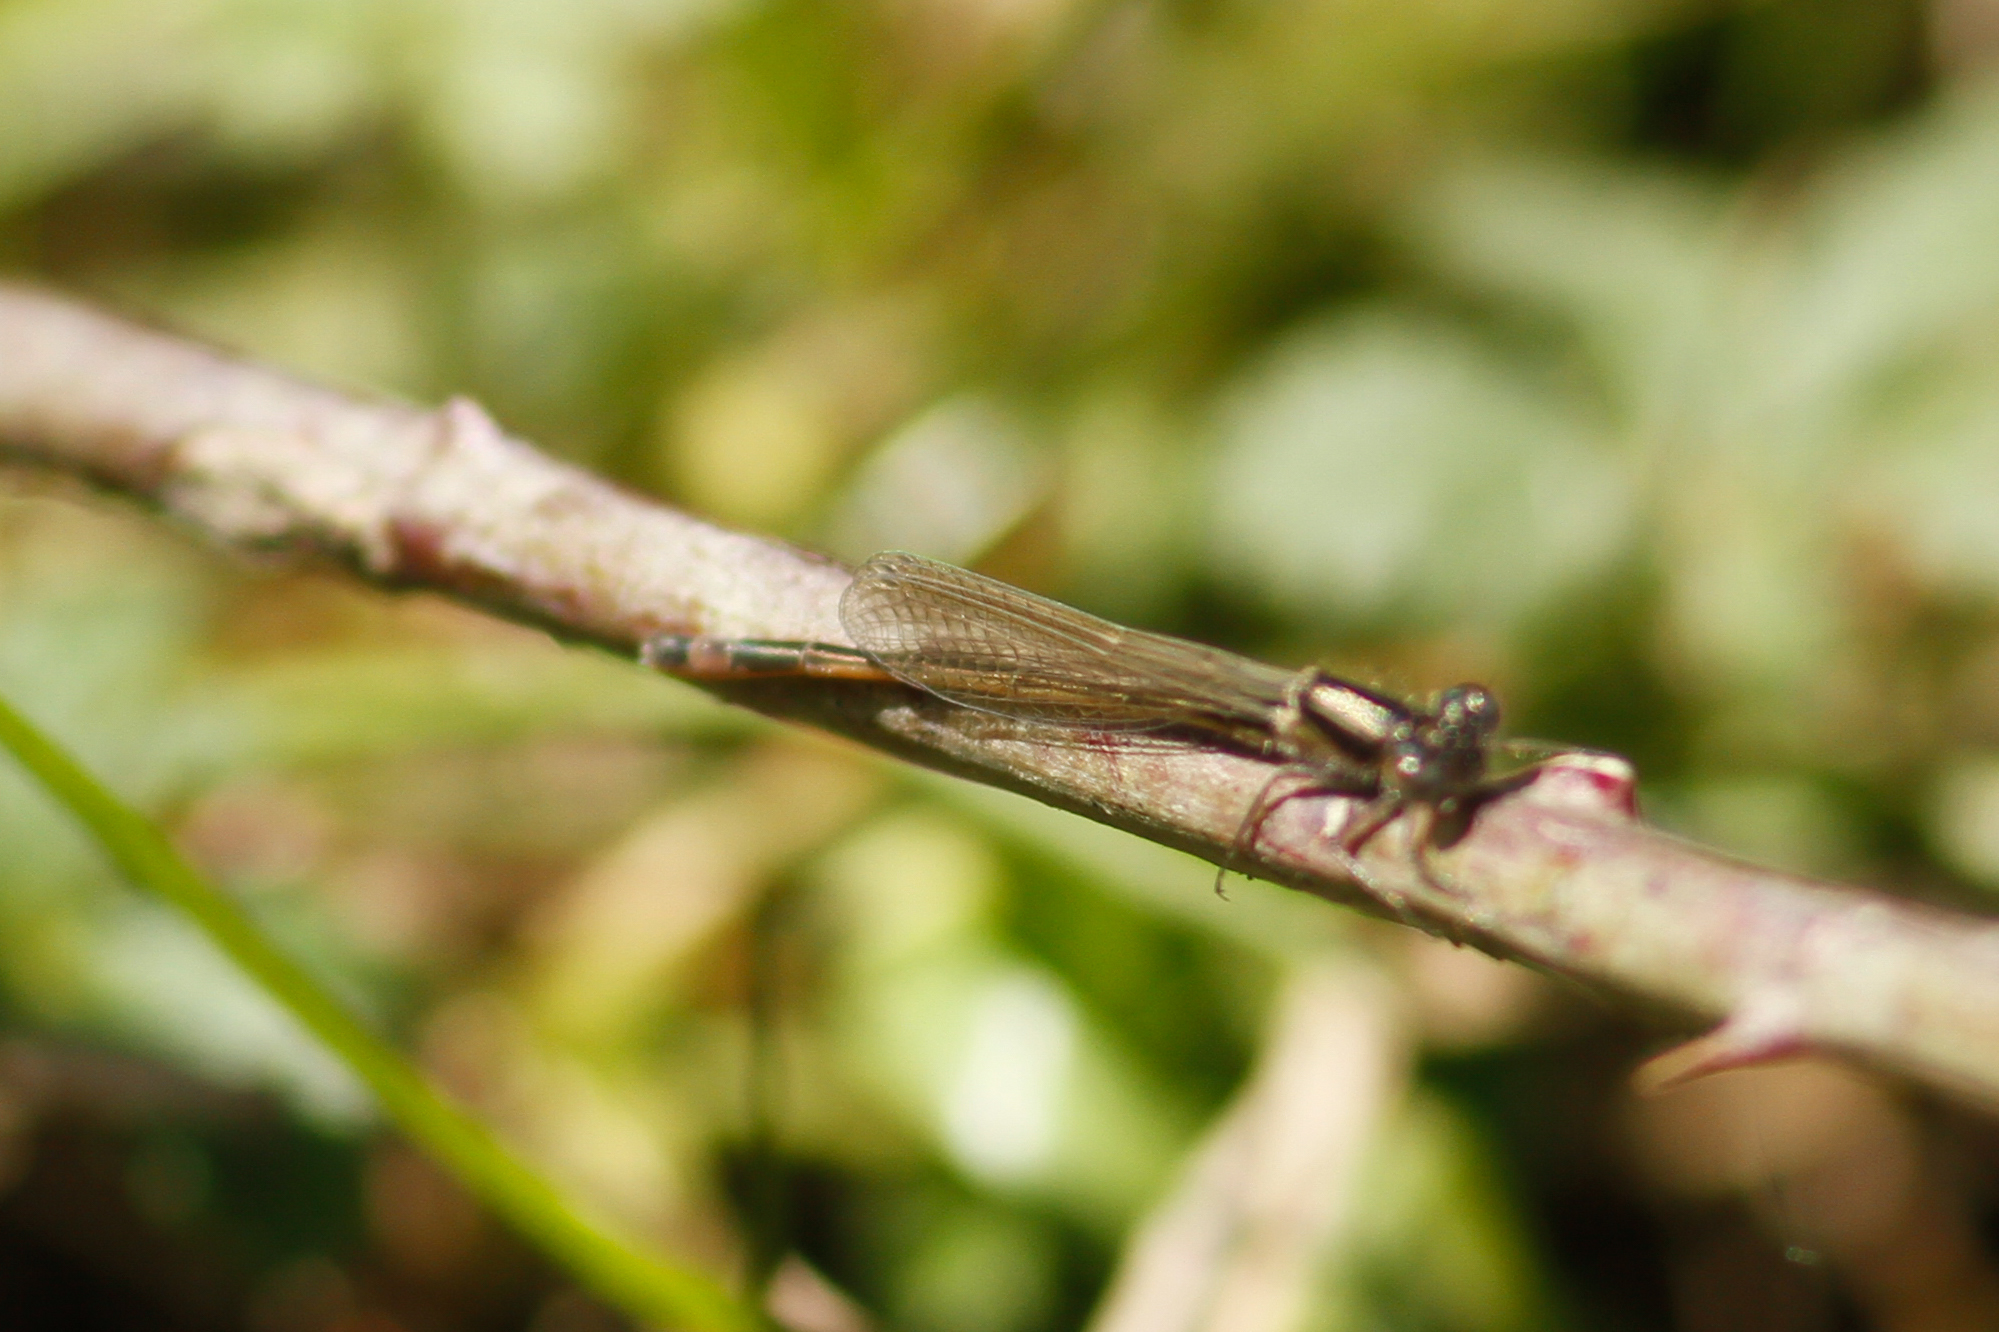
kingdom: Animalia
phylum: Arthropoda
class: Insecta
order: Odonata
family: Coenagrionidae
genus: Ischnura
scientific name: Ischnura genei
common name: Island bluetail
